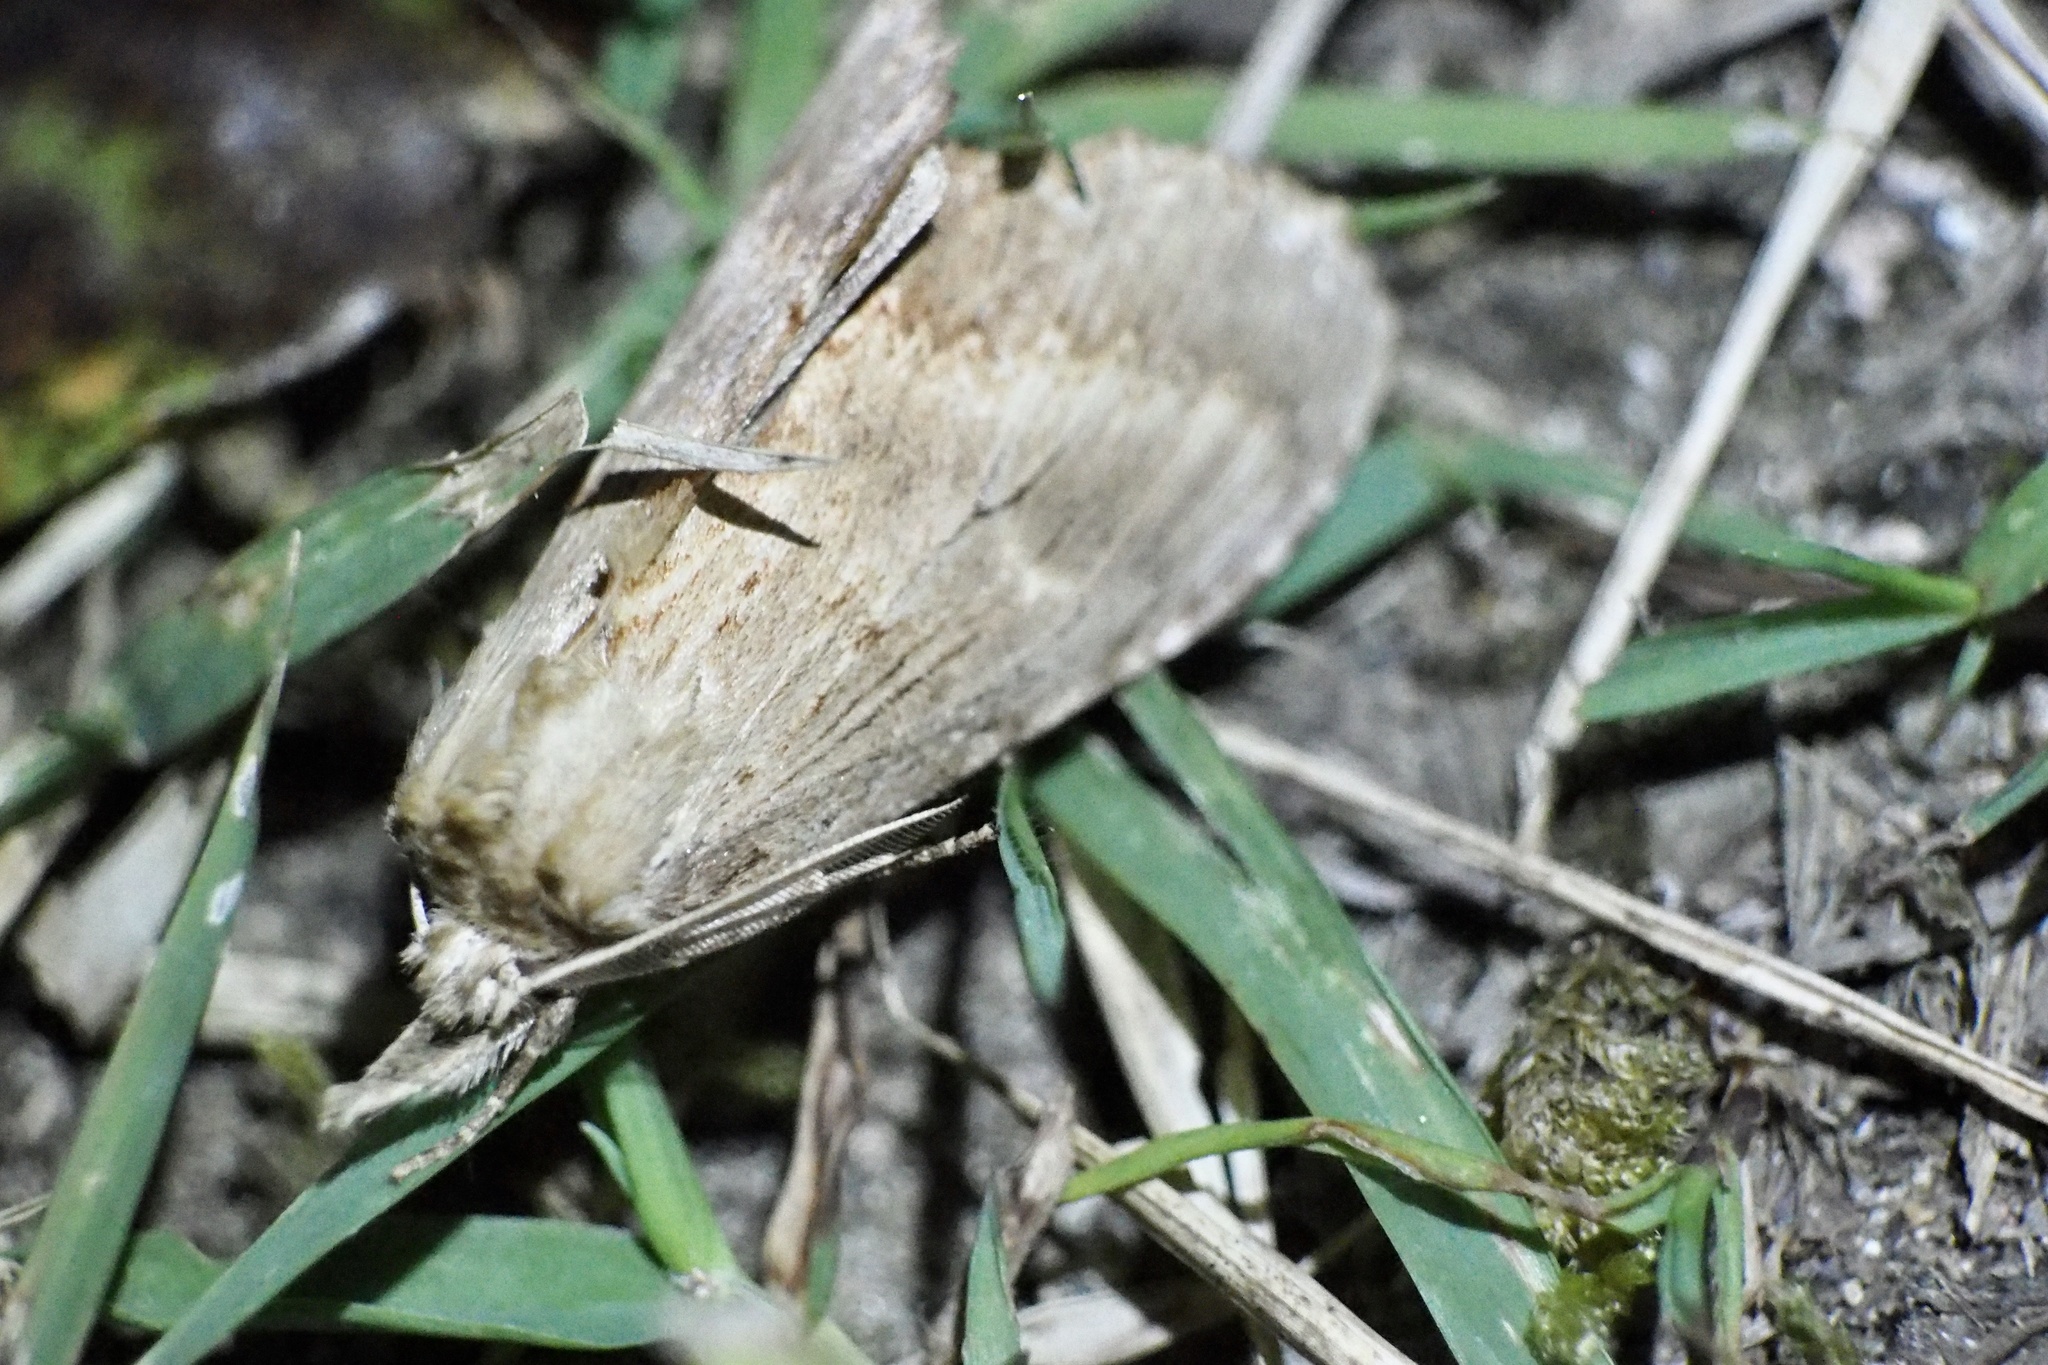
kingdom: Animalia
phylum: Arthropoda
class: Insecta
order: Lepidoptera
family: Notodontidae
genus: Pterostoma
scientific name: Pterostoma gigantina
